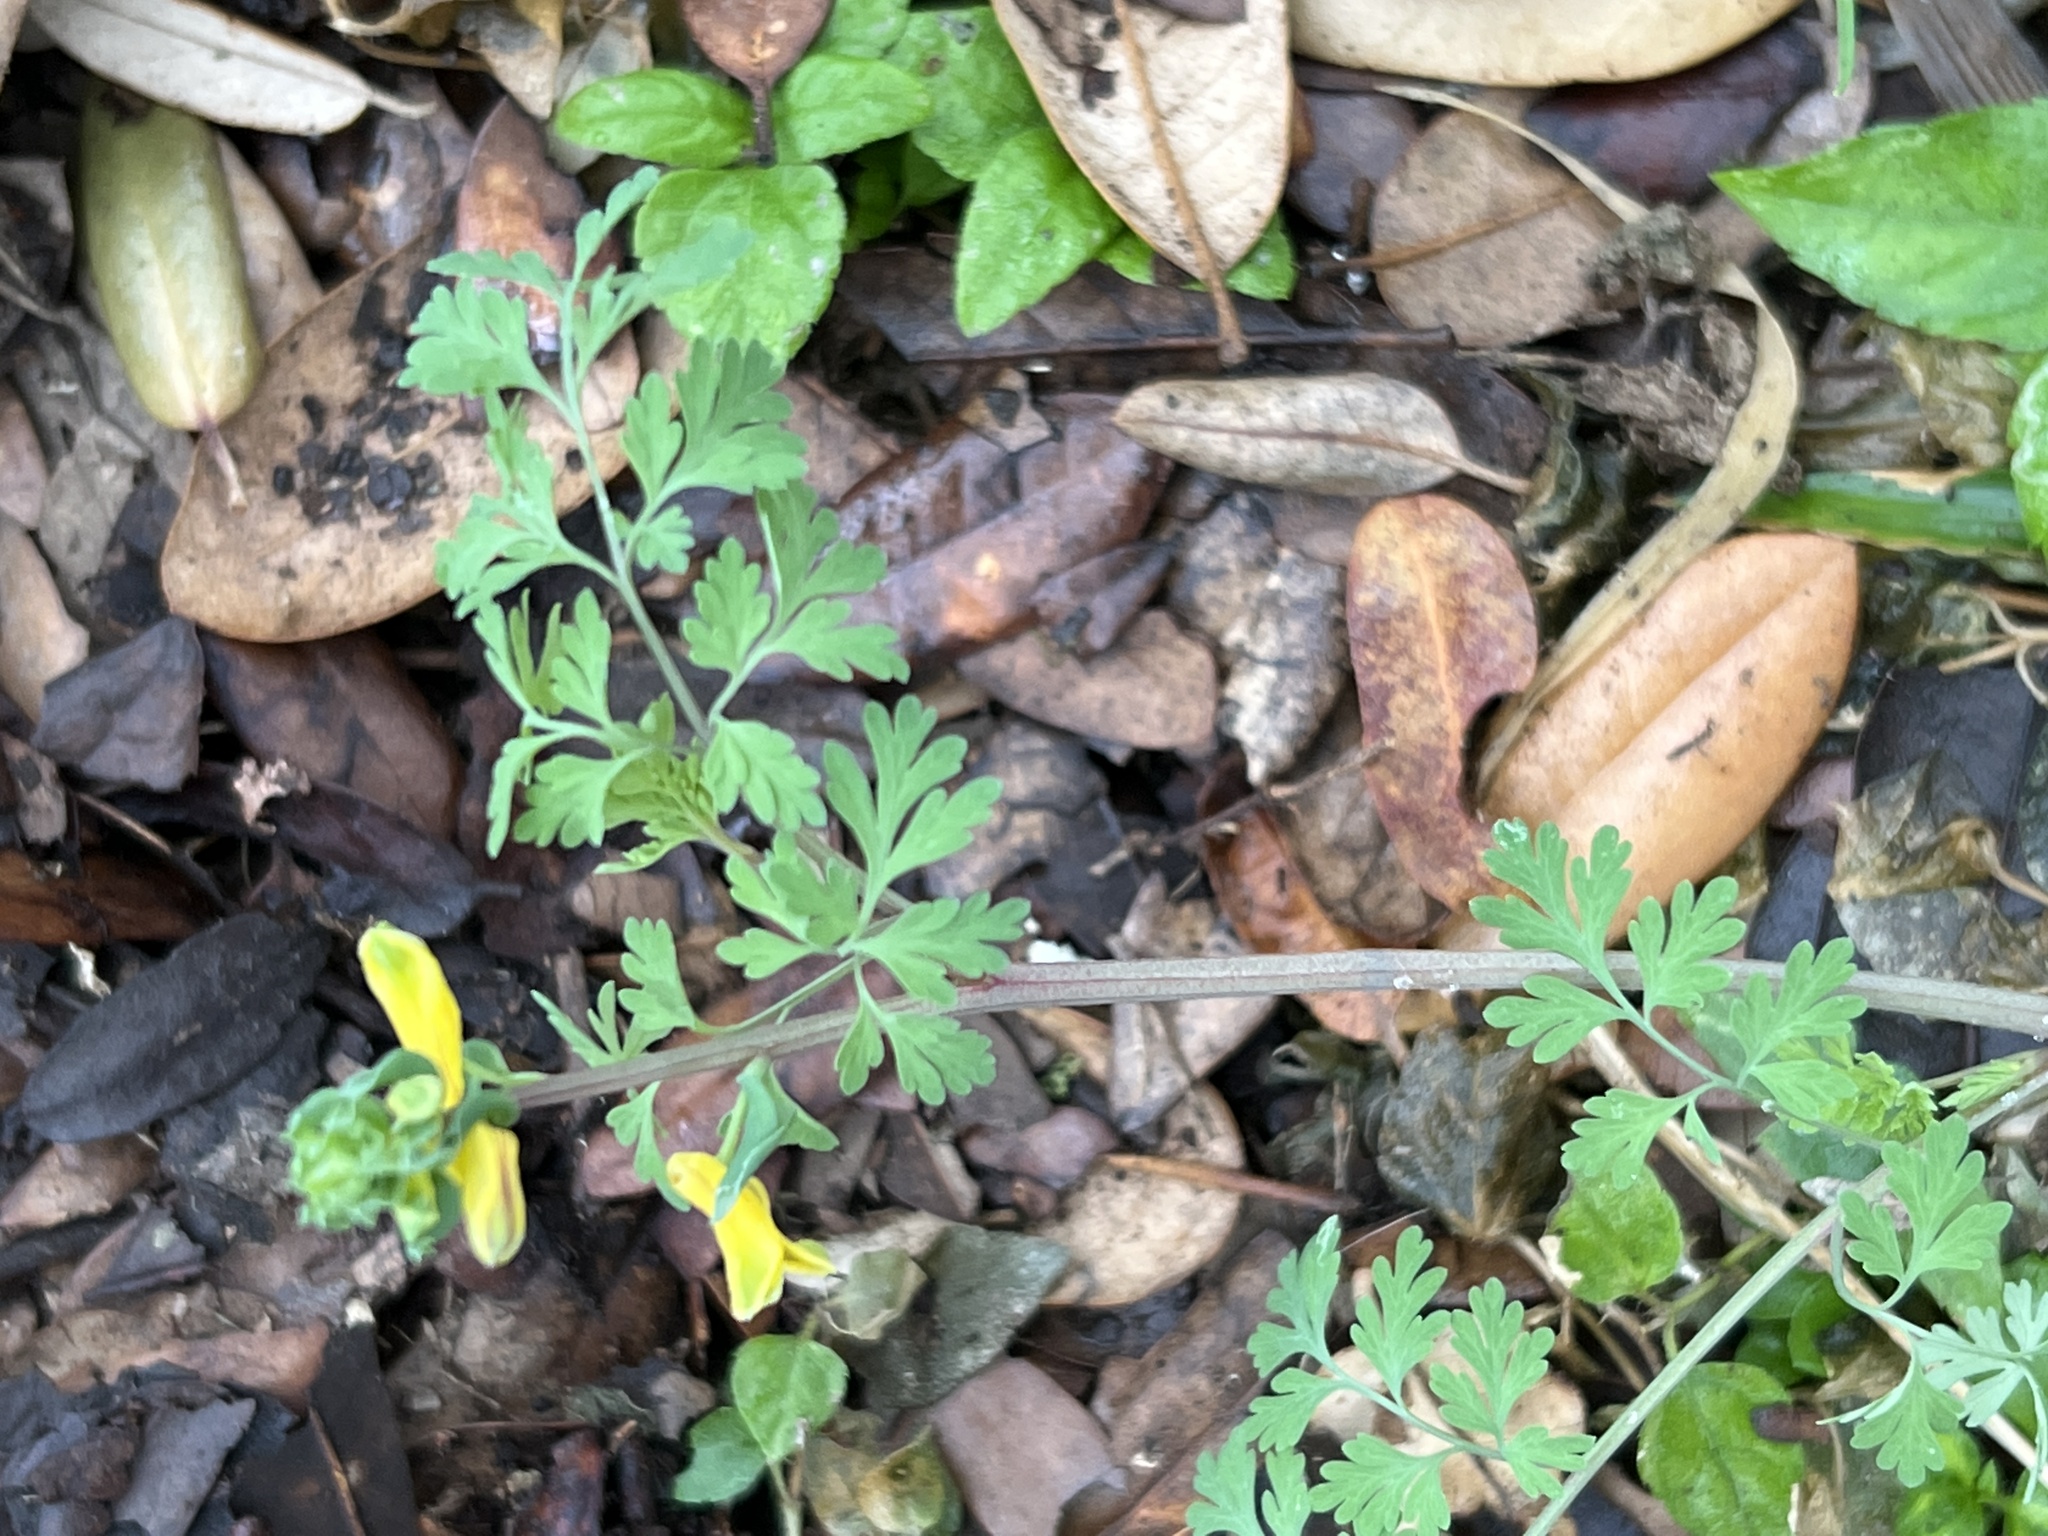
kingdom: Plantae
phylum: Tracheophyta
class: Magnoliopsida
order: Ranunculales
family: Papaveraceae
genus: Corydalis
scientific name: Corydalis micrantha
